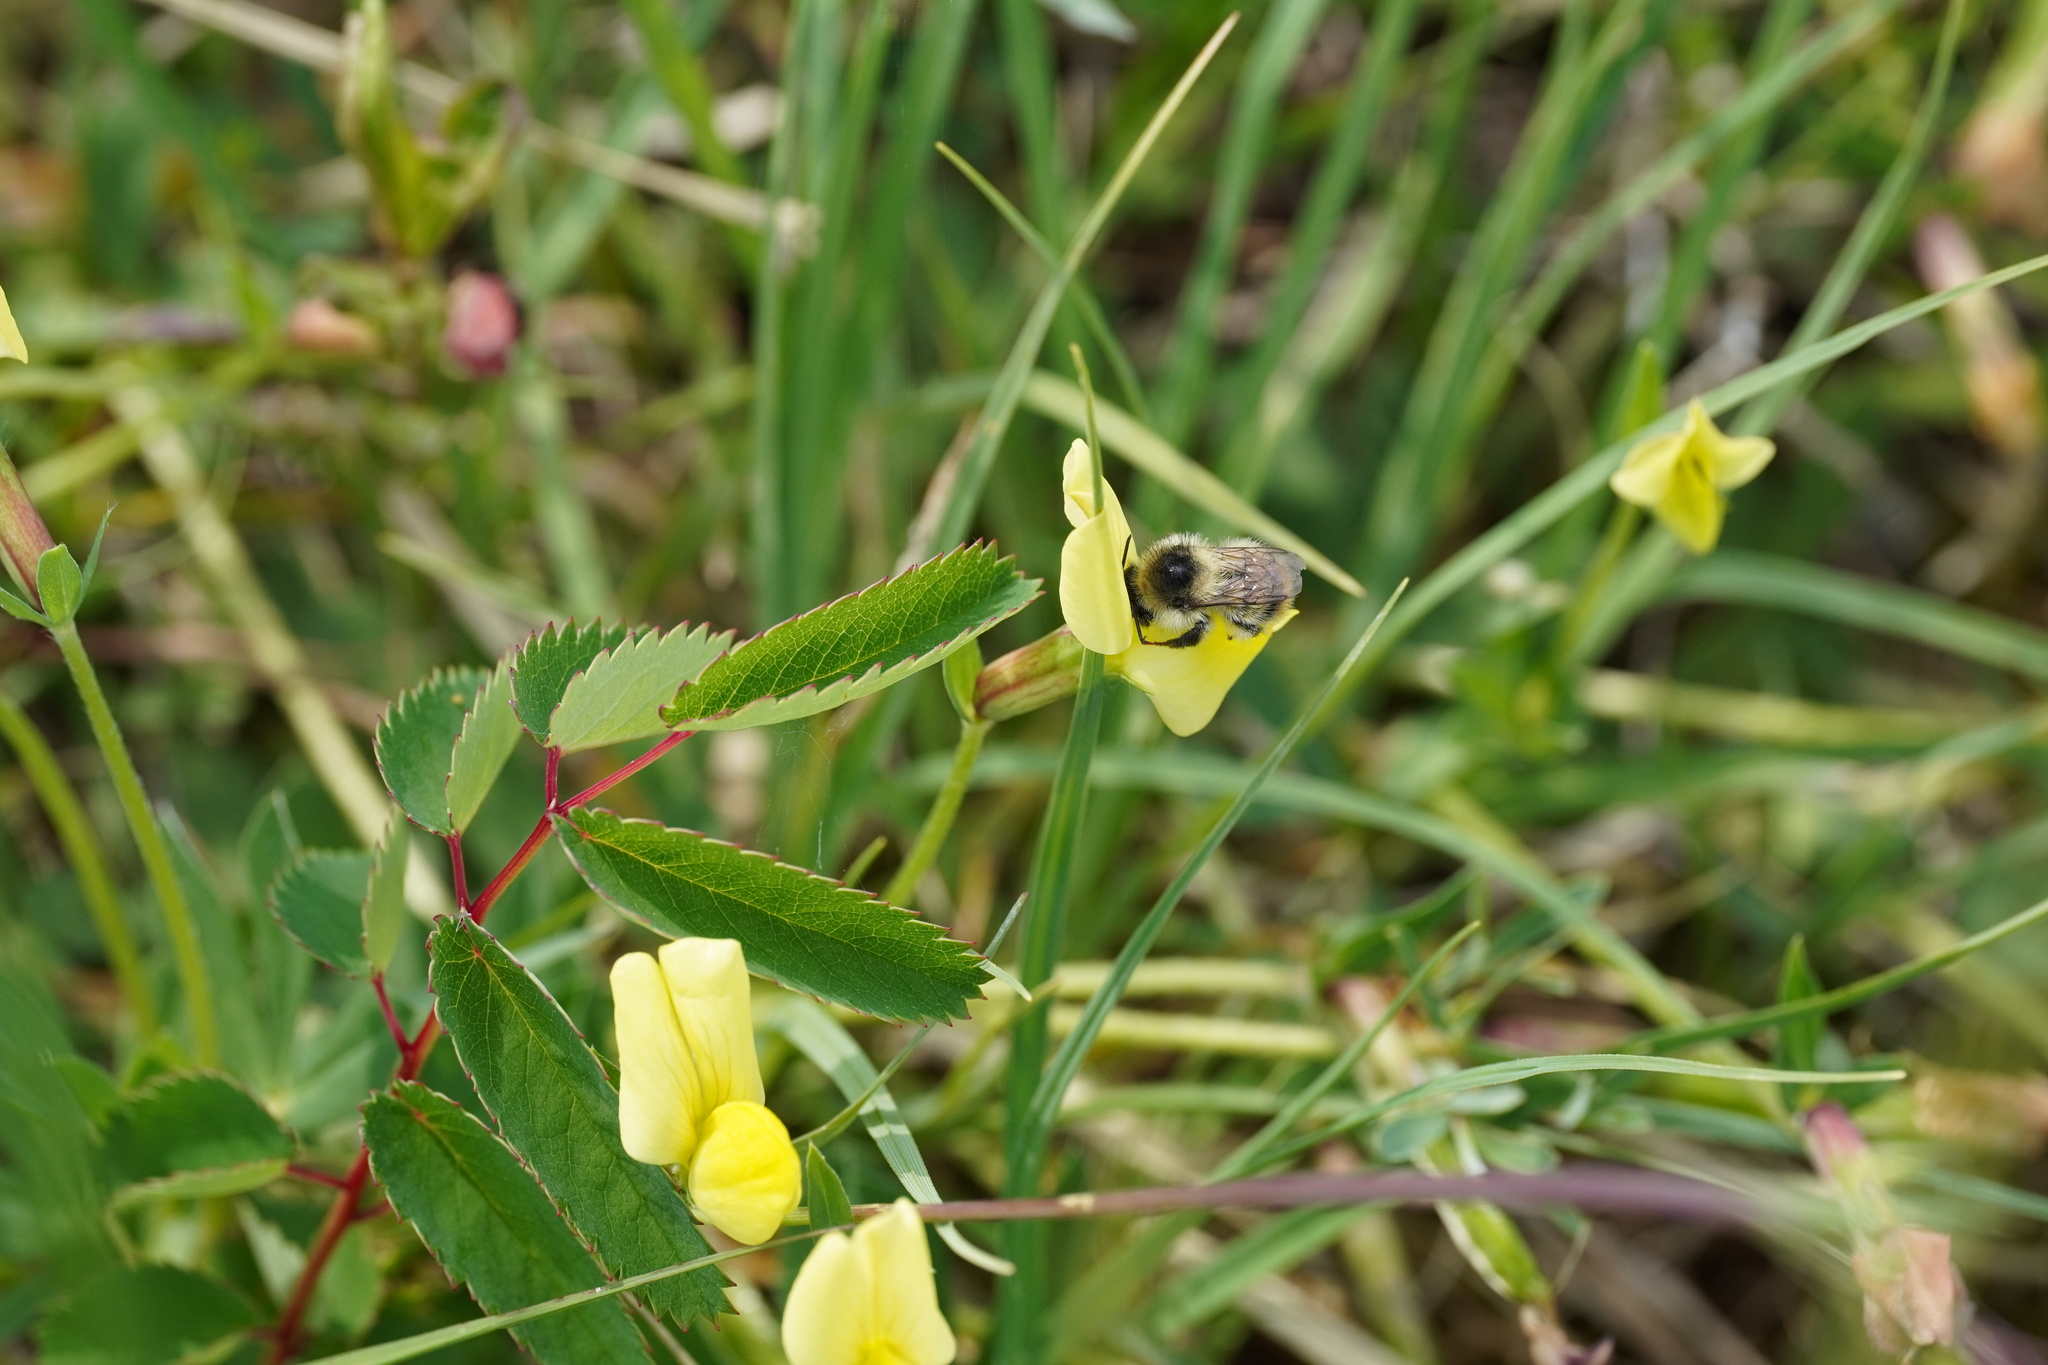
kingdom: Animalia
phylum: Arthropoda
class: Insecta
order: Hymenoptera
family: Apidae
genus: Bombus
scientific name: Bombus sylvarum
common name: Shrill carder bee
